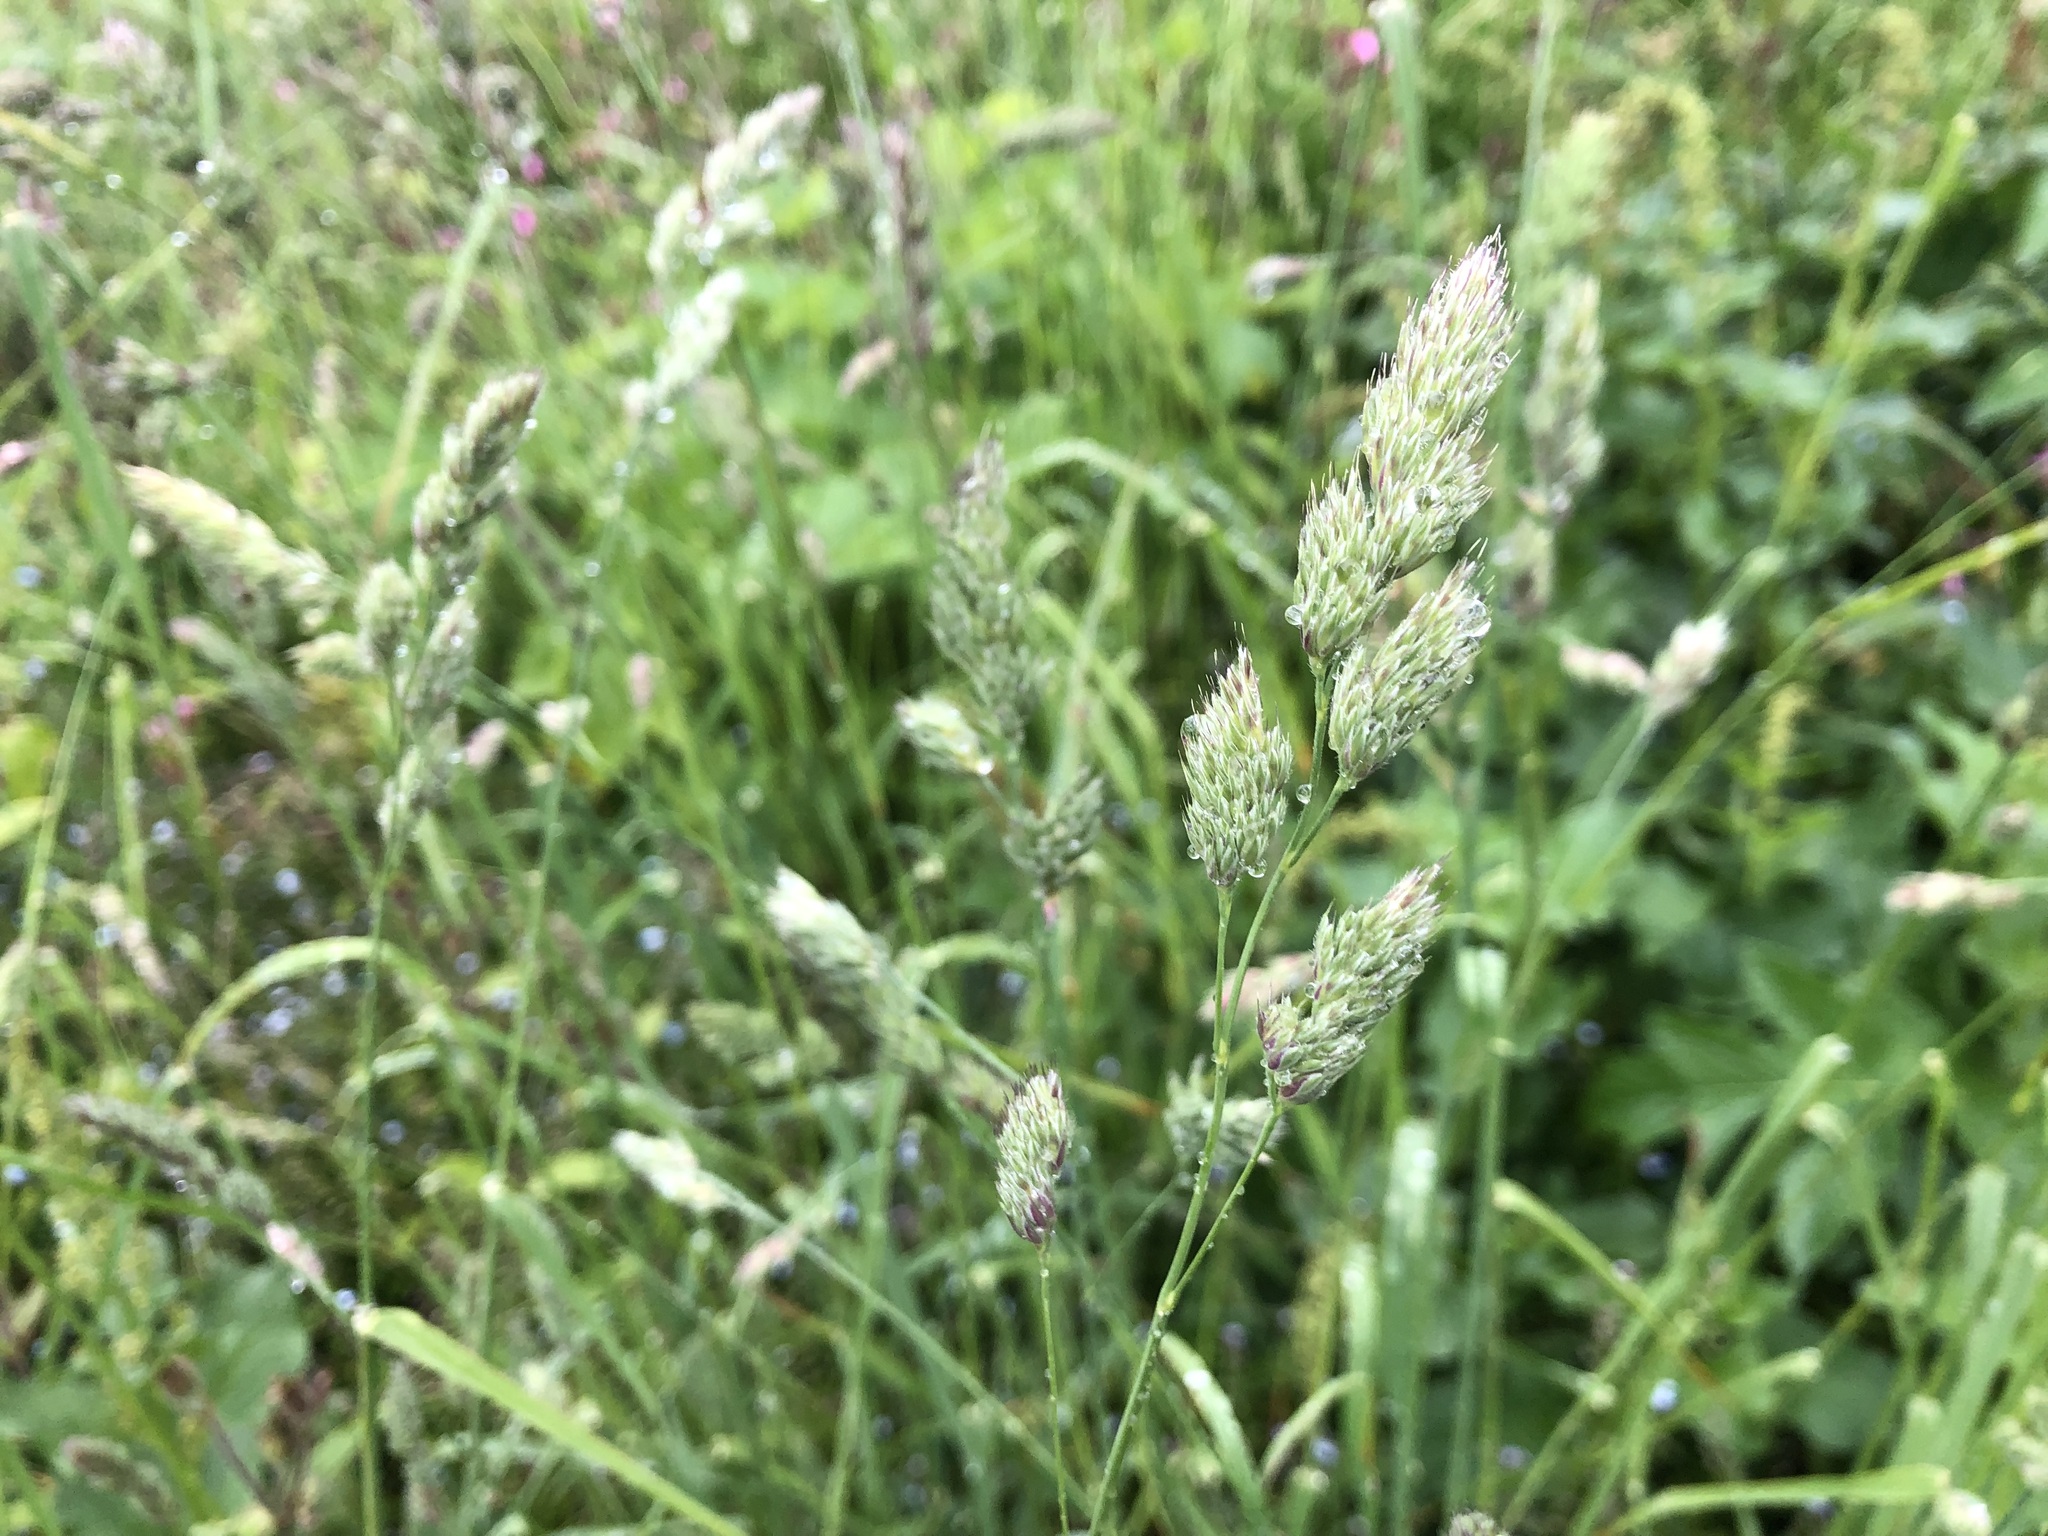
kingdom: Plantae
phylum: Tracheophyta
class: Liliopsida
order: Poales
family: Poaceae
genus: Dactylis
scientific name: Dactylis glomerata
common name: Orchardgrass
